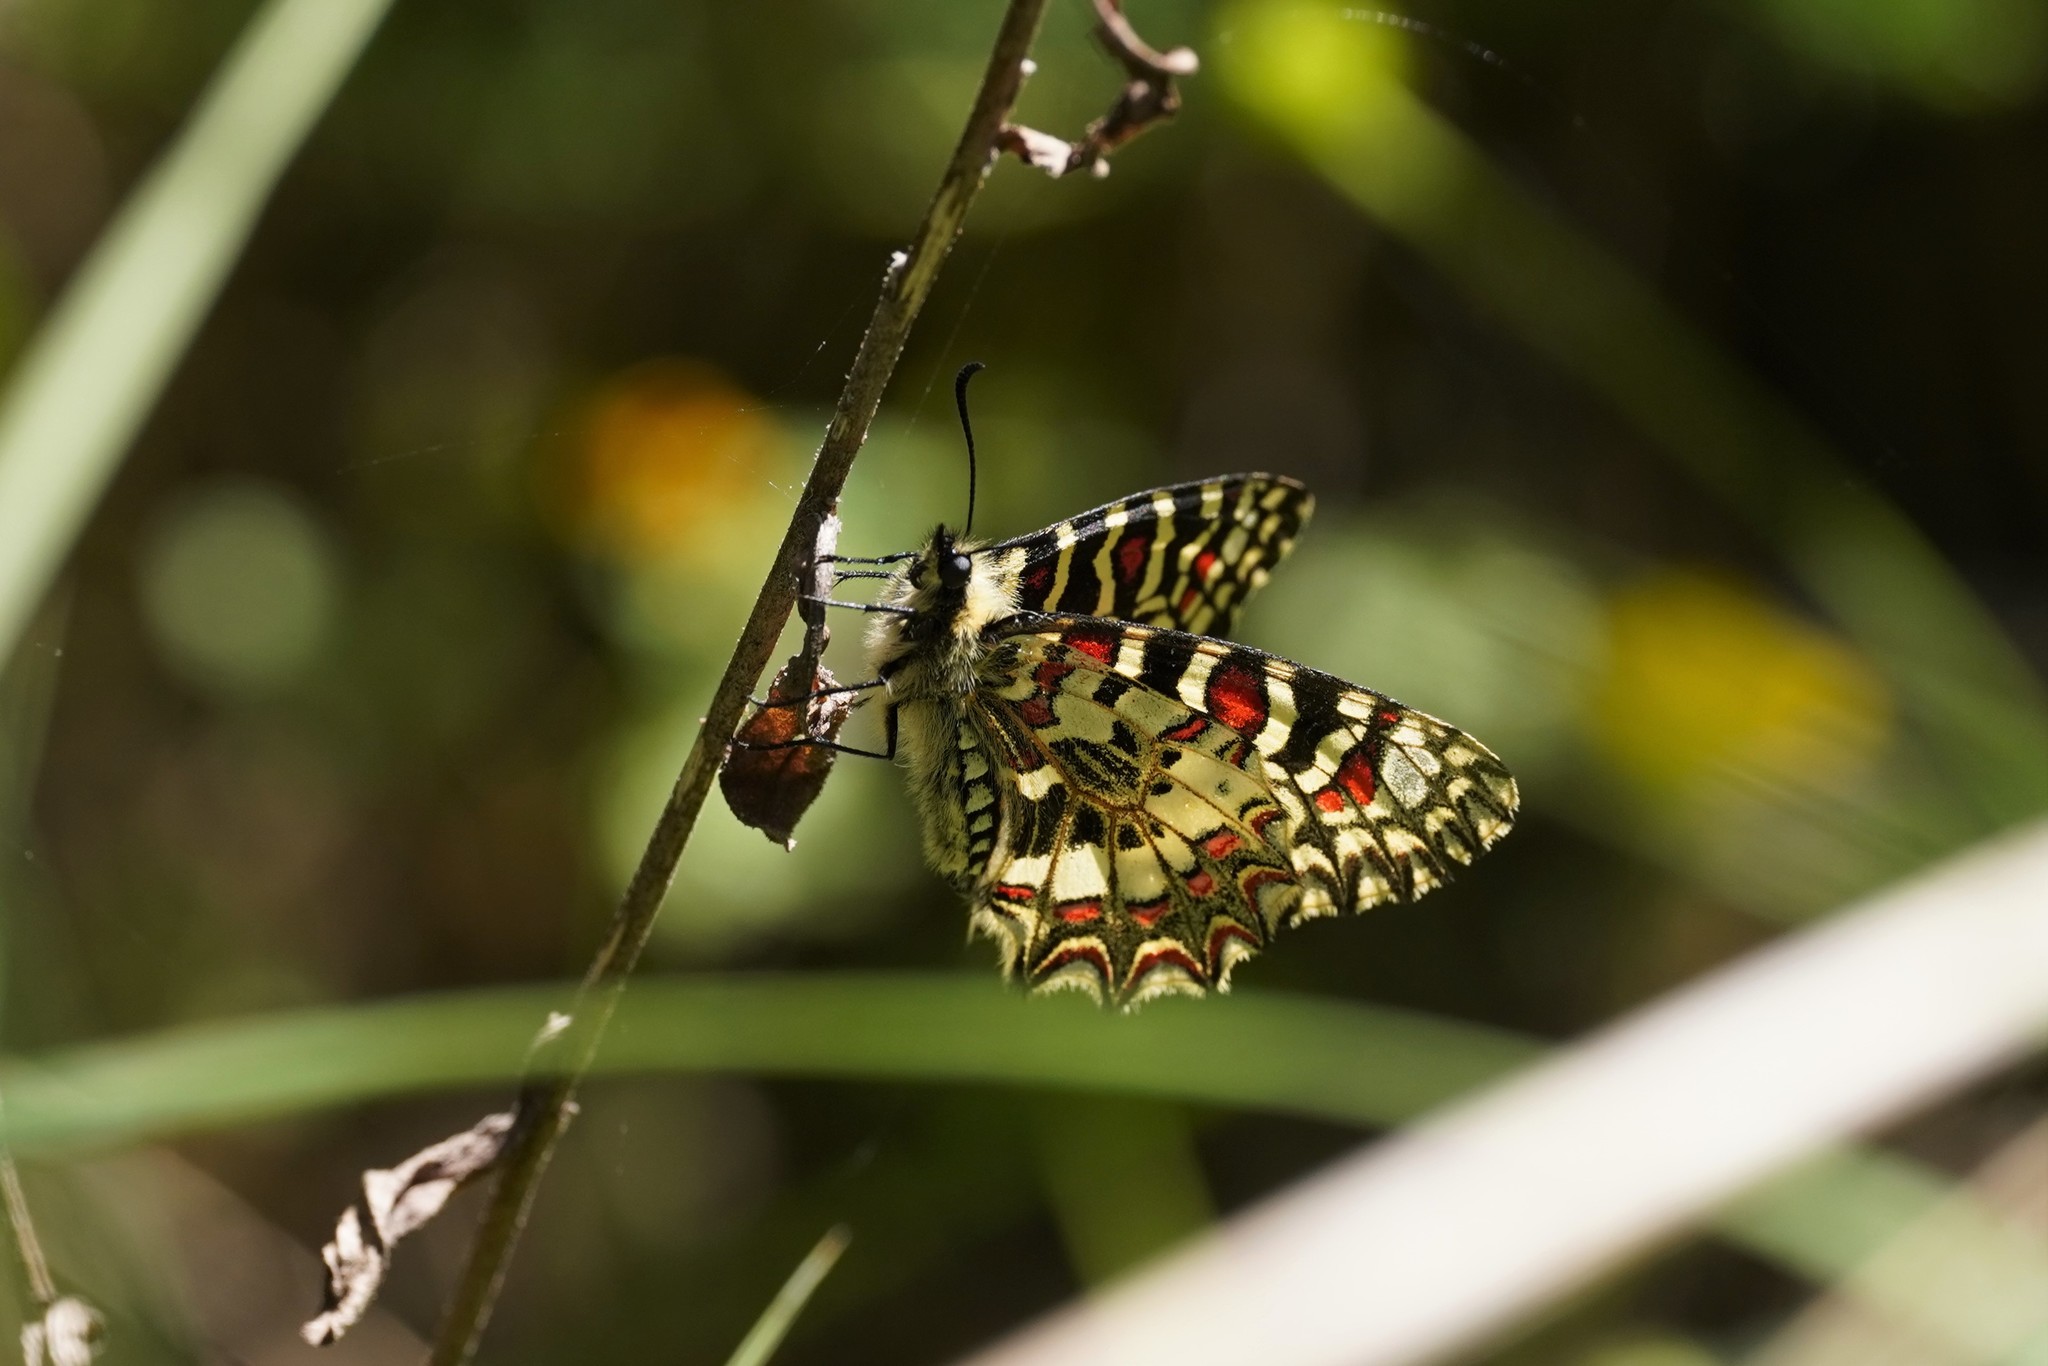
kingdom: Animalia
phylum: Arthropoda
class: Insecta
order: Lepidoptera
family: Papilionidae
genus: Zerynthia
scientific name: Zerynthia rumina
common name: Spanish festoon
